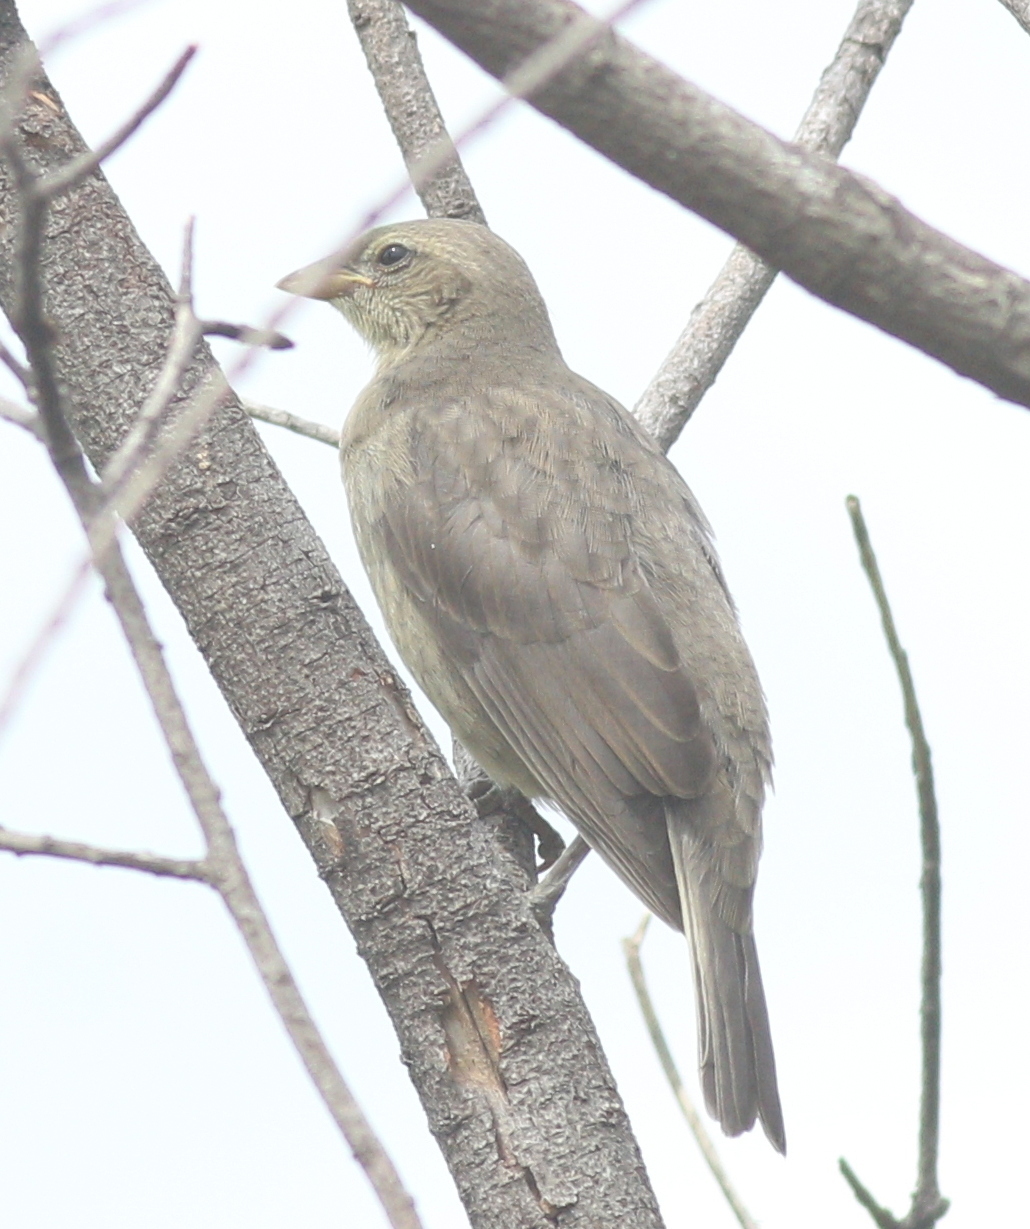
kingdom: Animalia
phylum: Chordata
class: Aves
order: Passeriformes
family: Icteridae
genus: Molothrus
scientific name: Molothrus bonariensis
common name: Shiny cowbird
